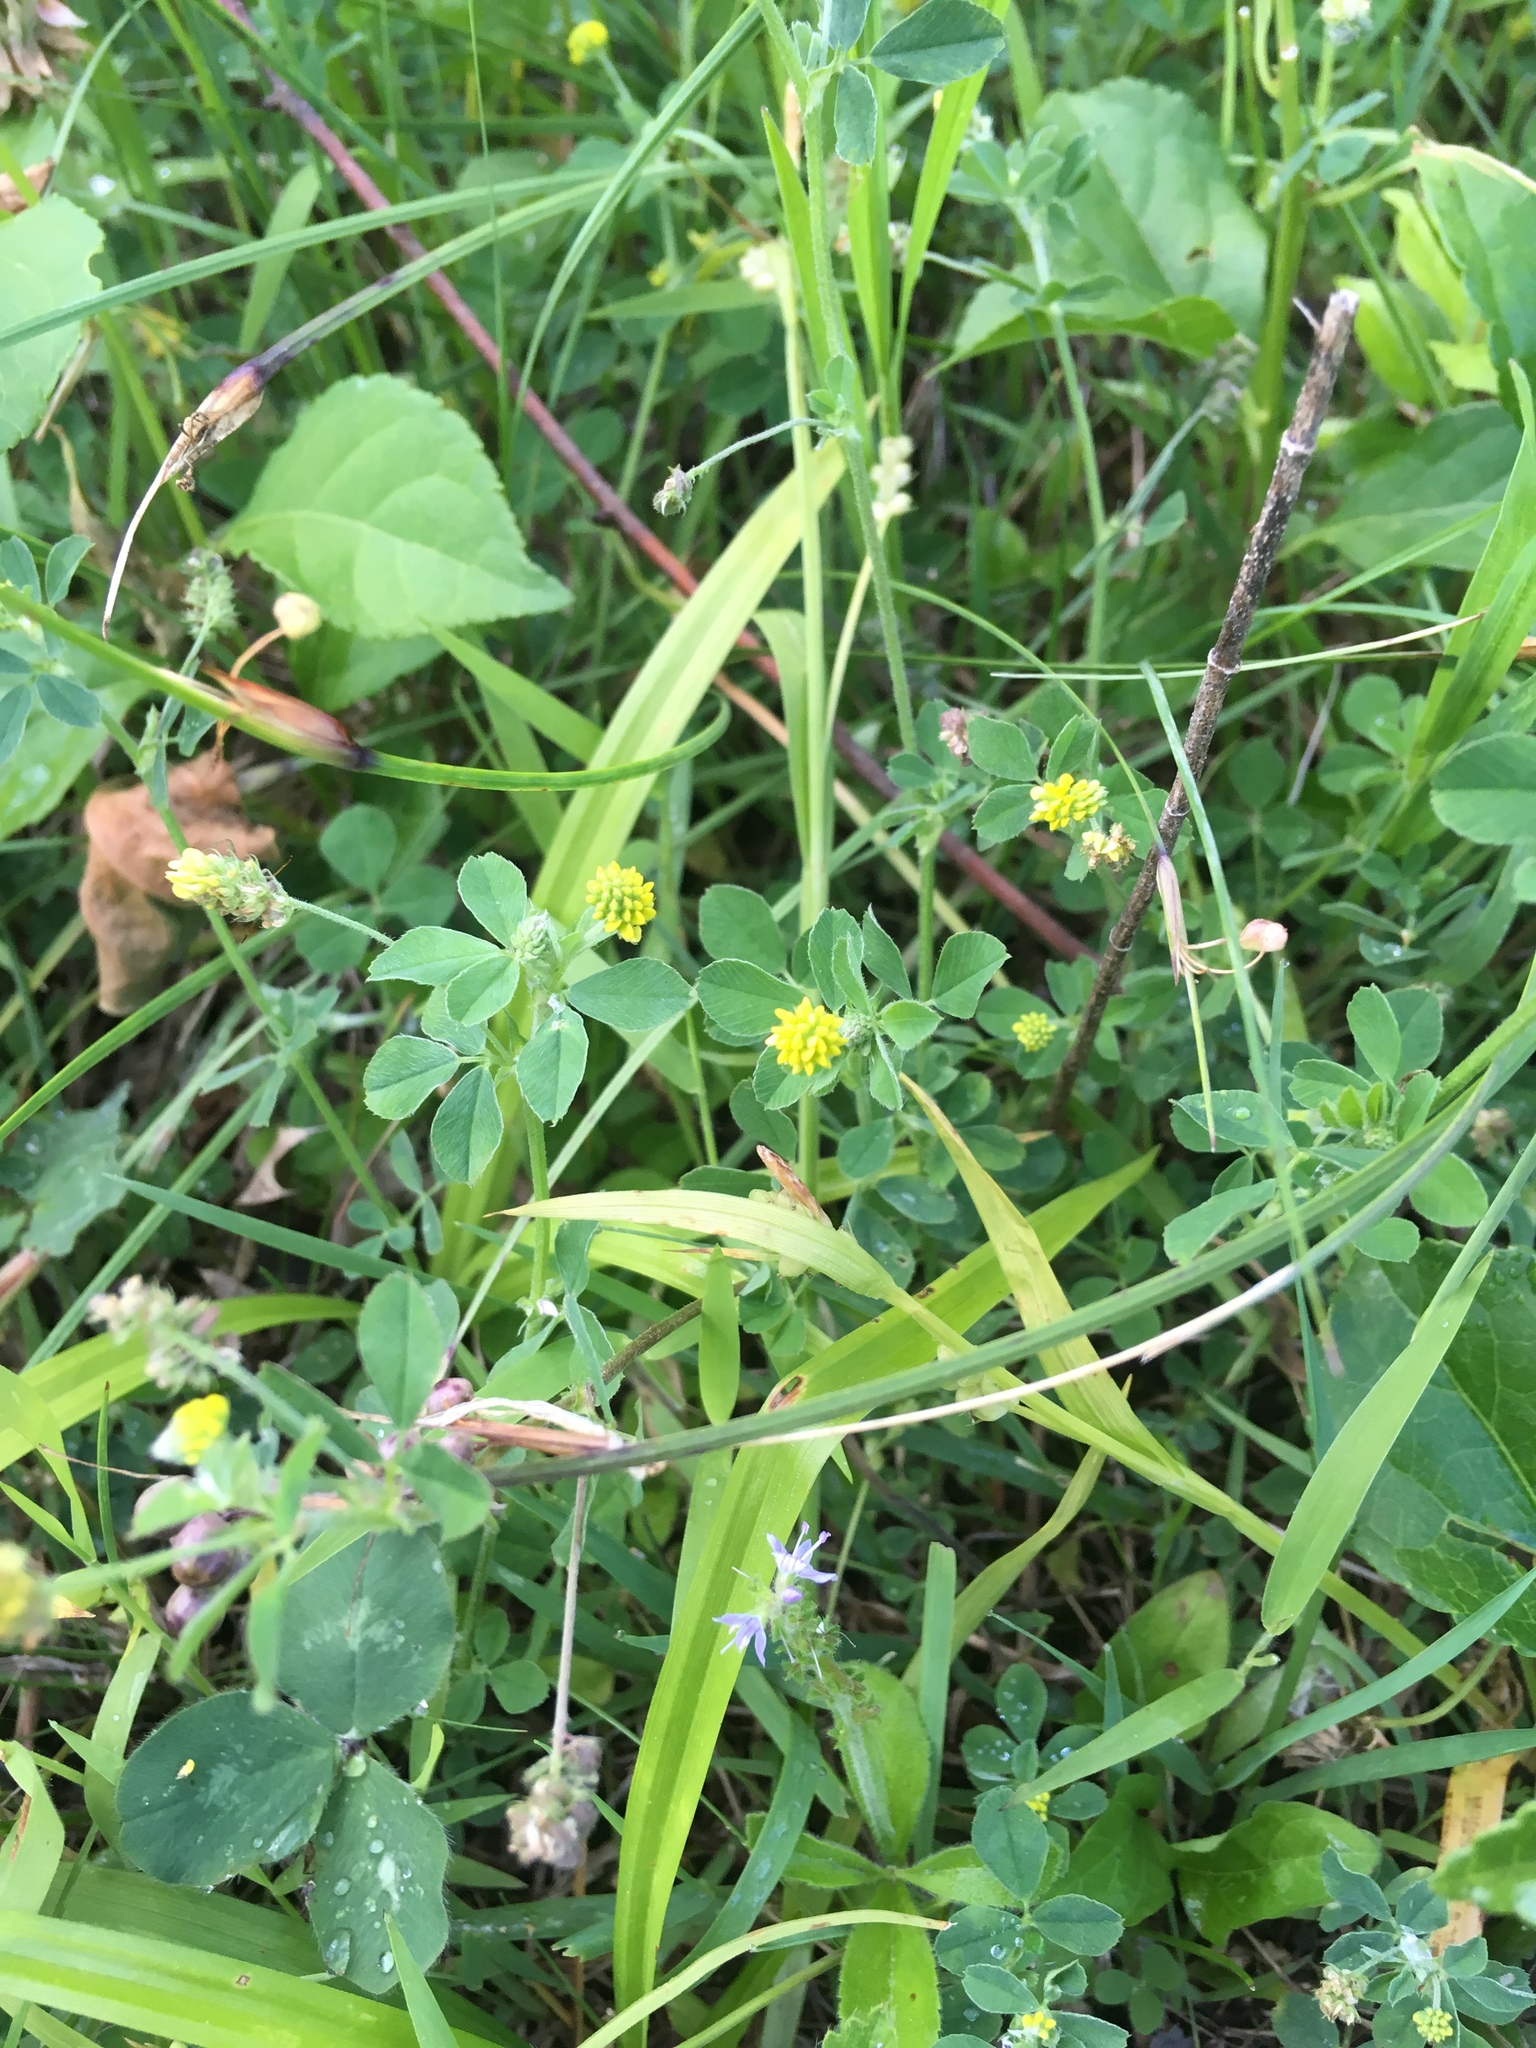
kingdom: Plantae
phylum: Tracheophyta
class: Magnoliopsida
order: Fabales
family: Fabaceae
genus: Medicago
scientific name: Medicago lupulina
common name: Black medick
